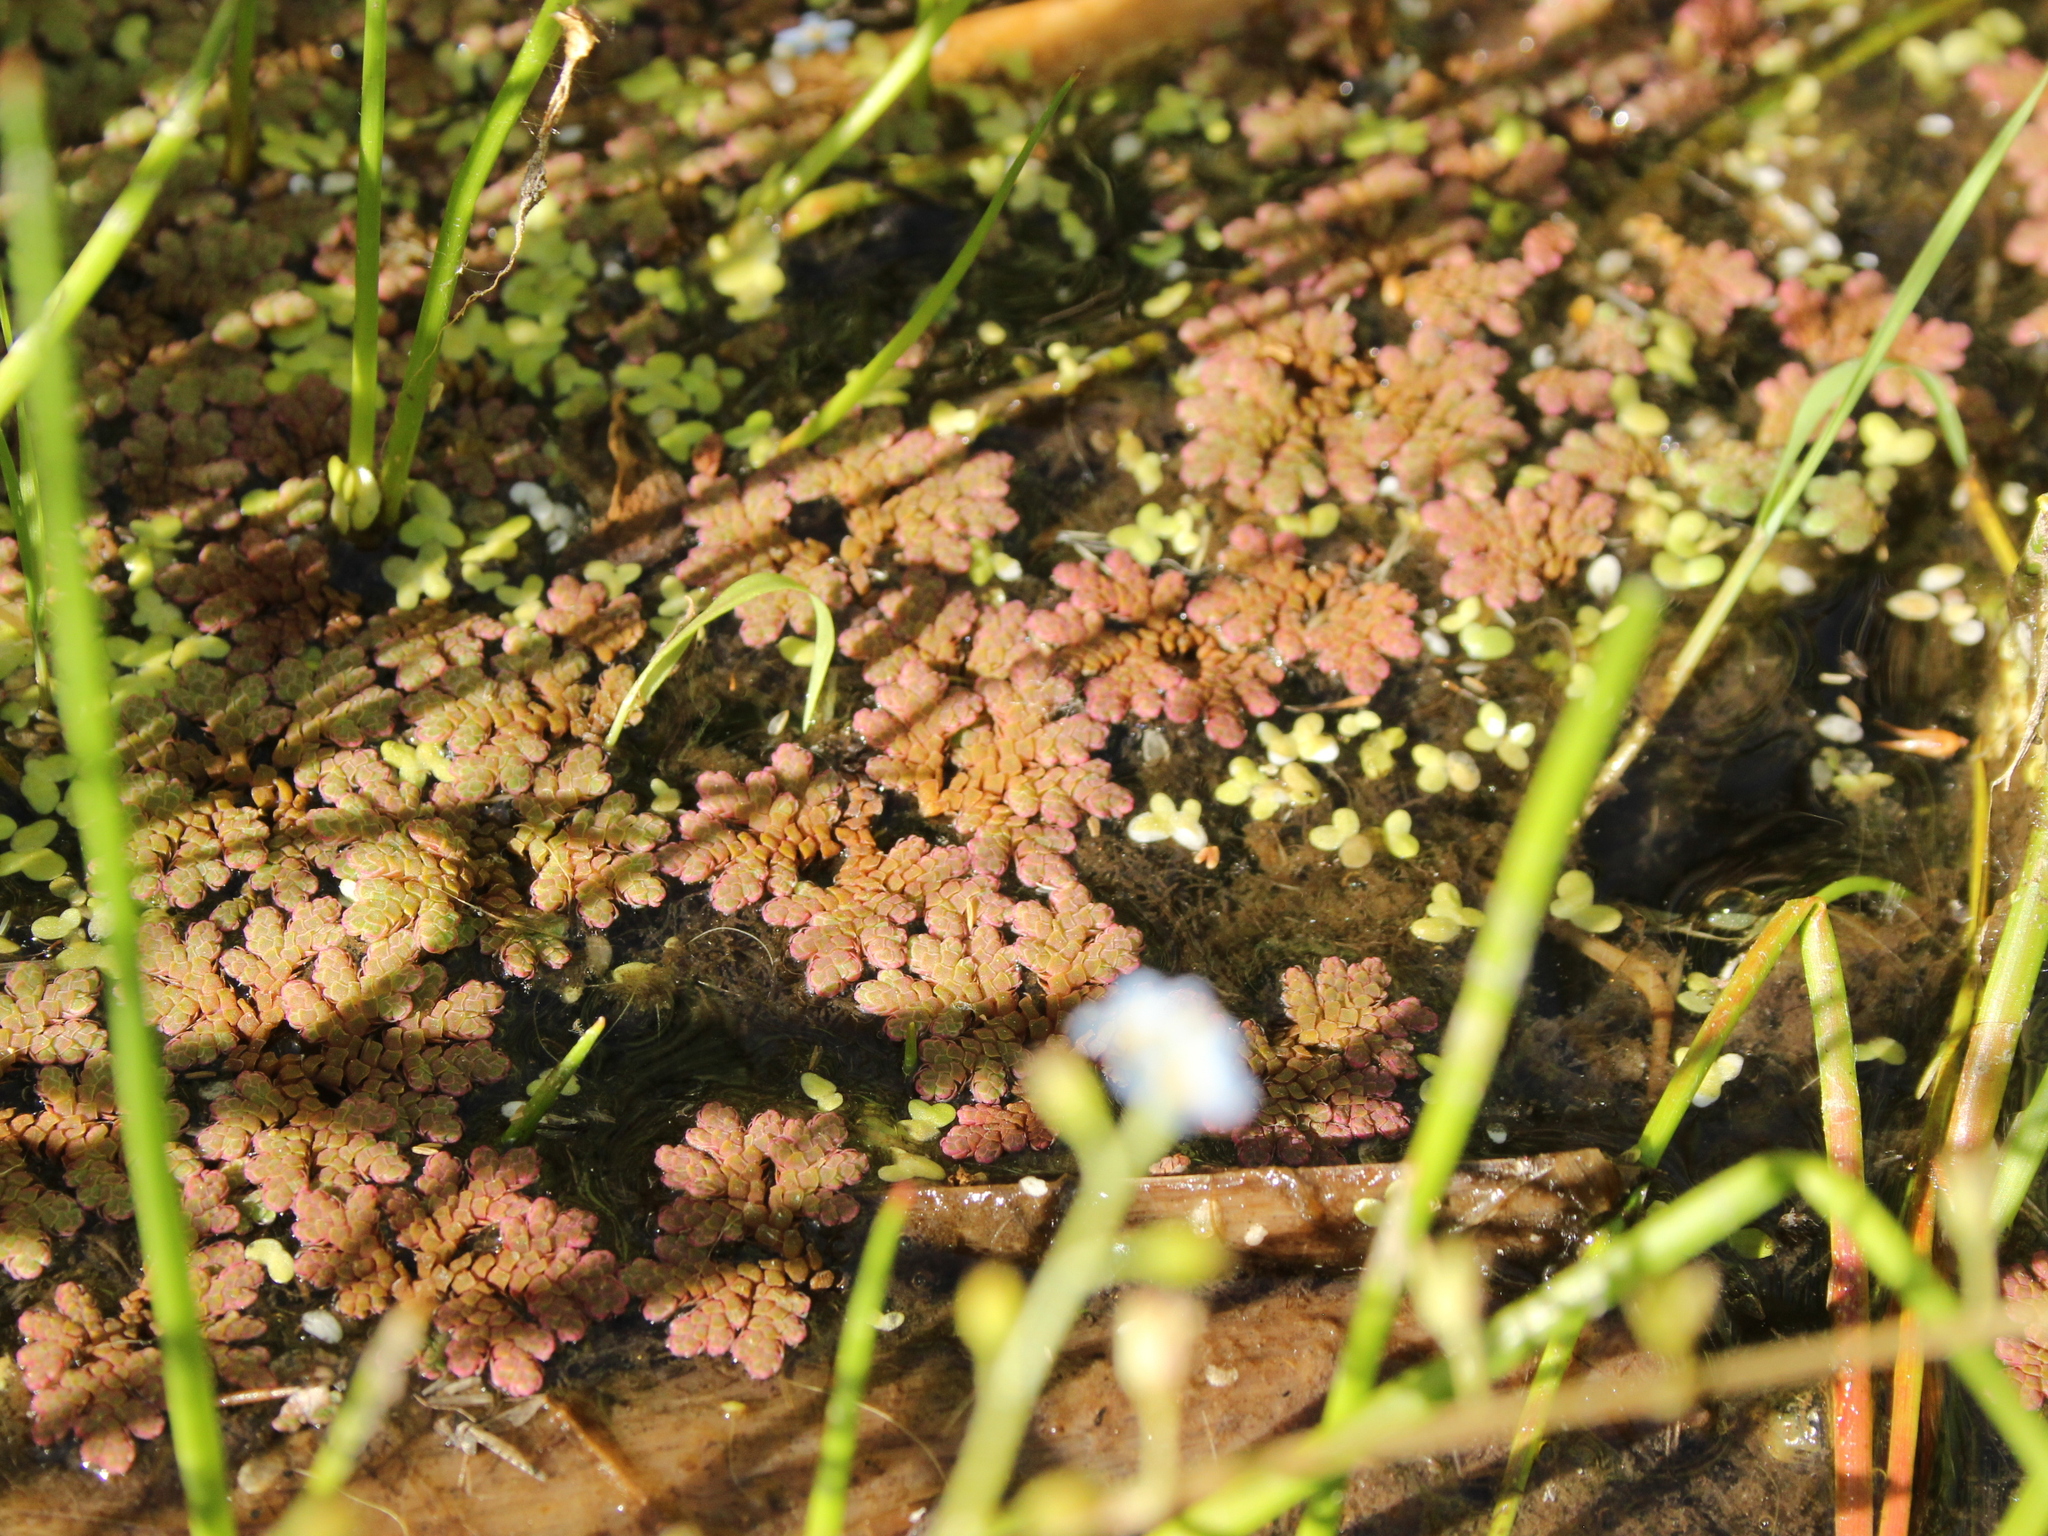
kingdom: Plantae
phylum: Tracheophyta
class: Polypodiopsida
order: Salviniales
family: Salviniaceae
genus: Azolla
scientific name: Azolla rubra
